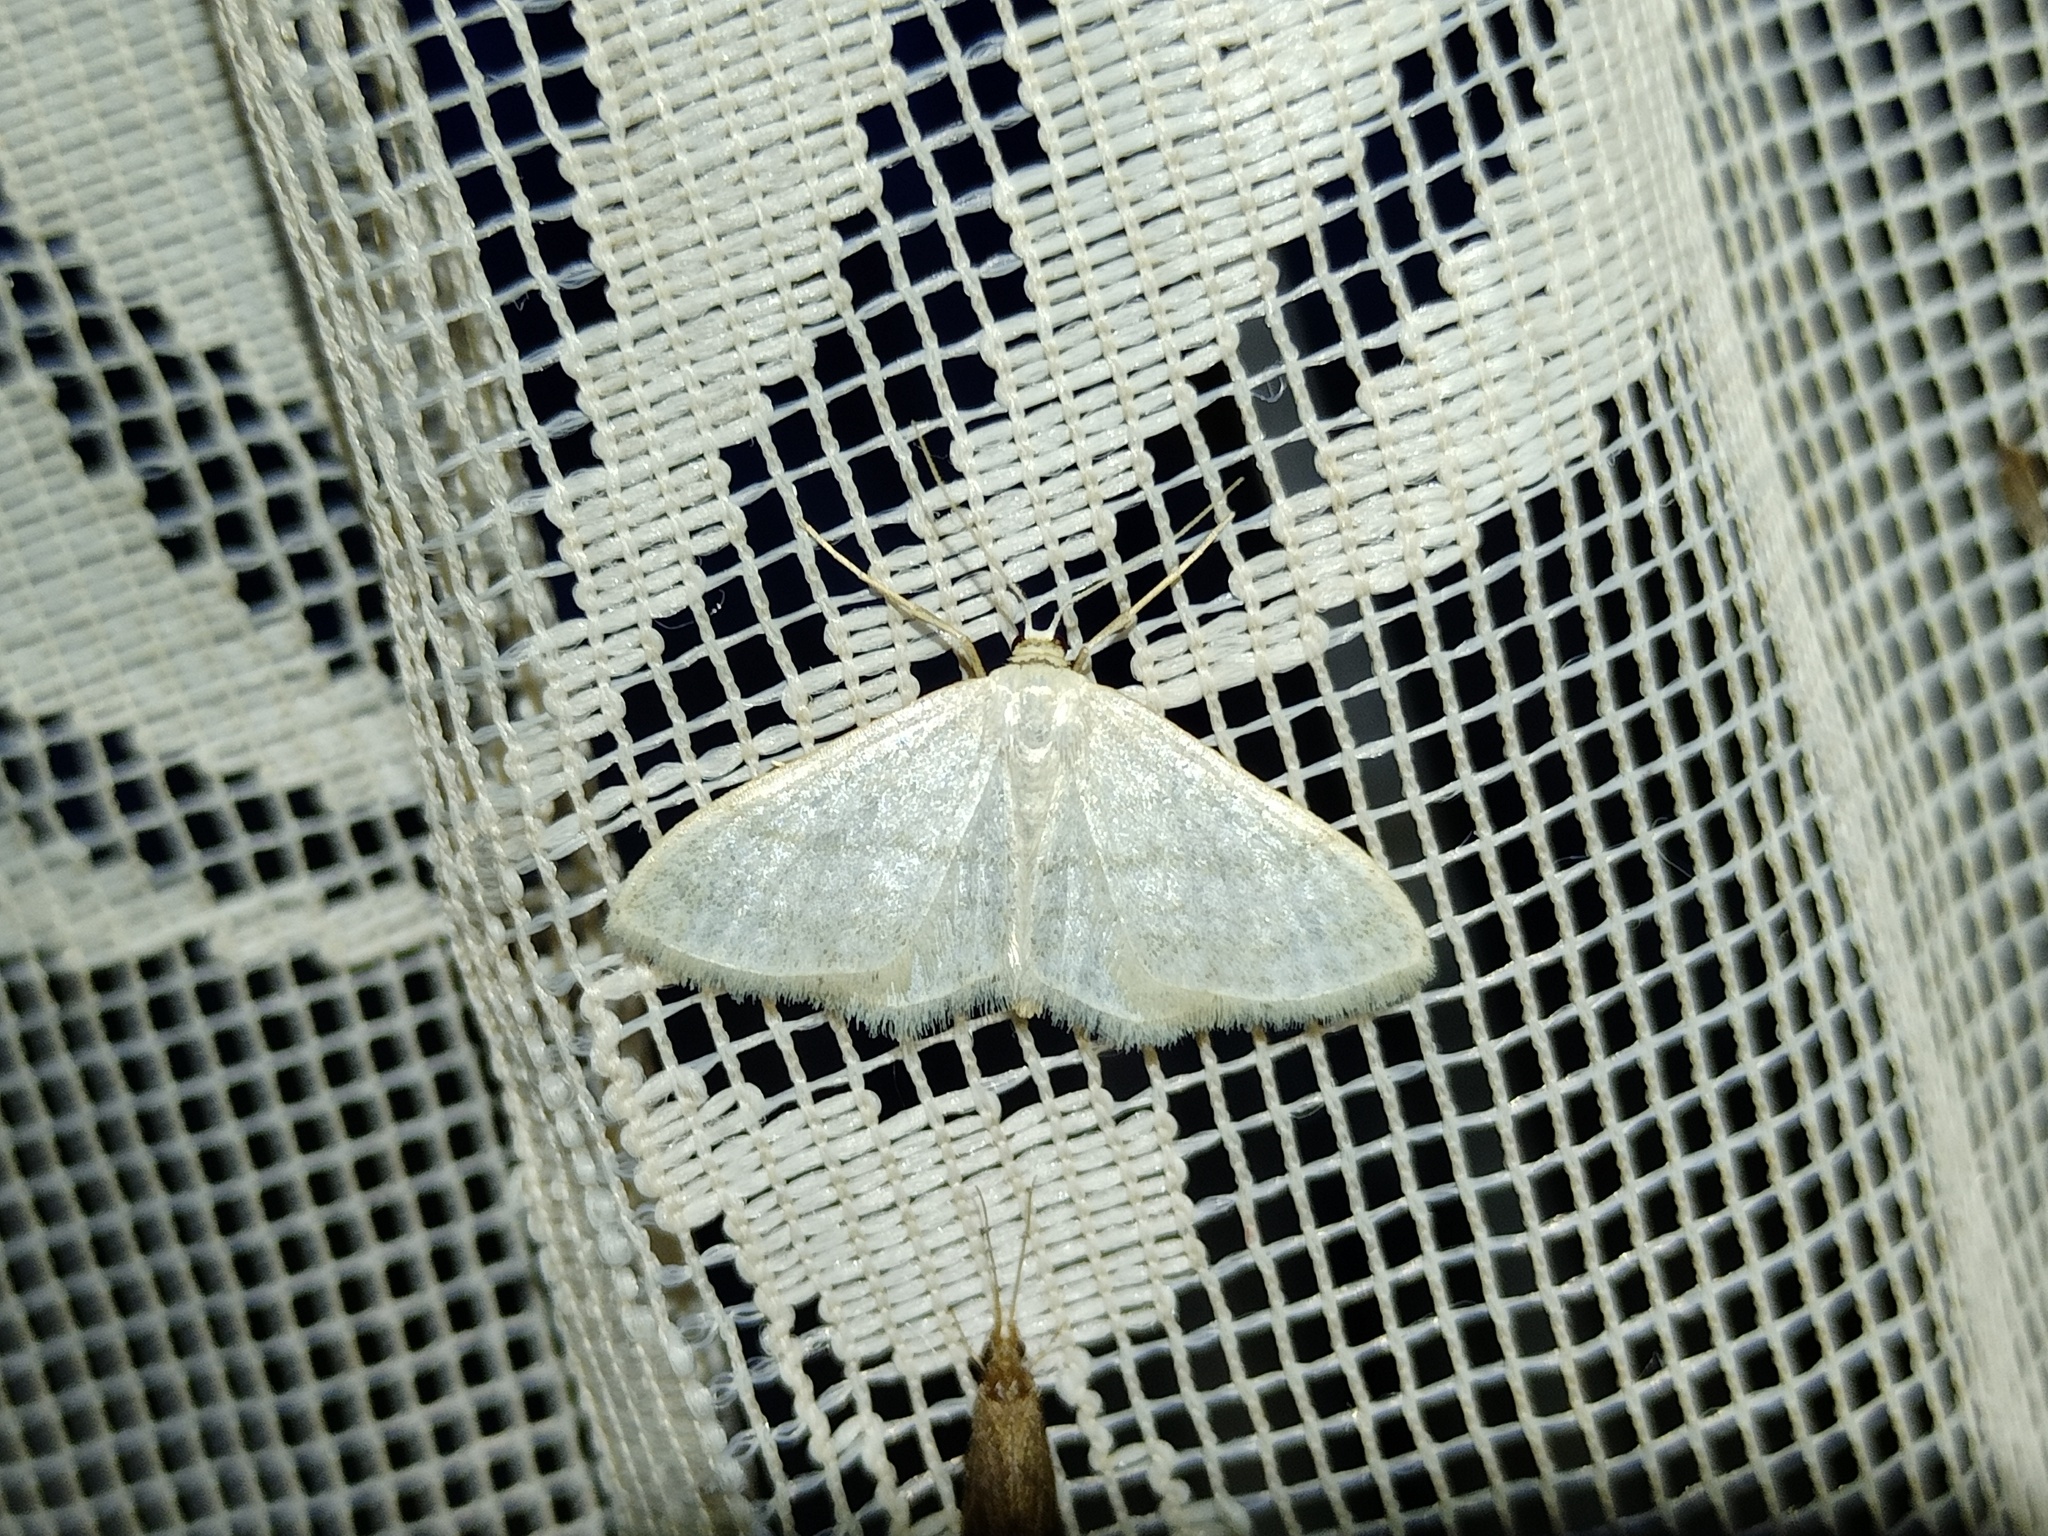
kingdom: Animalia
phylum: Arthropoda
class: Insecta
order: Lepidoptera
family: Geometridae
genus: Idaea
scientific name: Idaea subsericeata
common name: Satin wave
